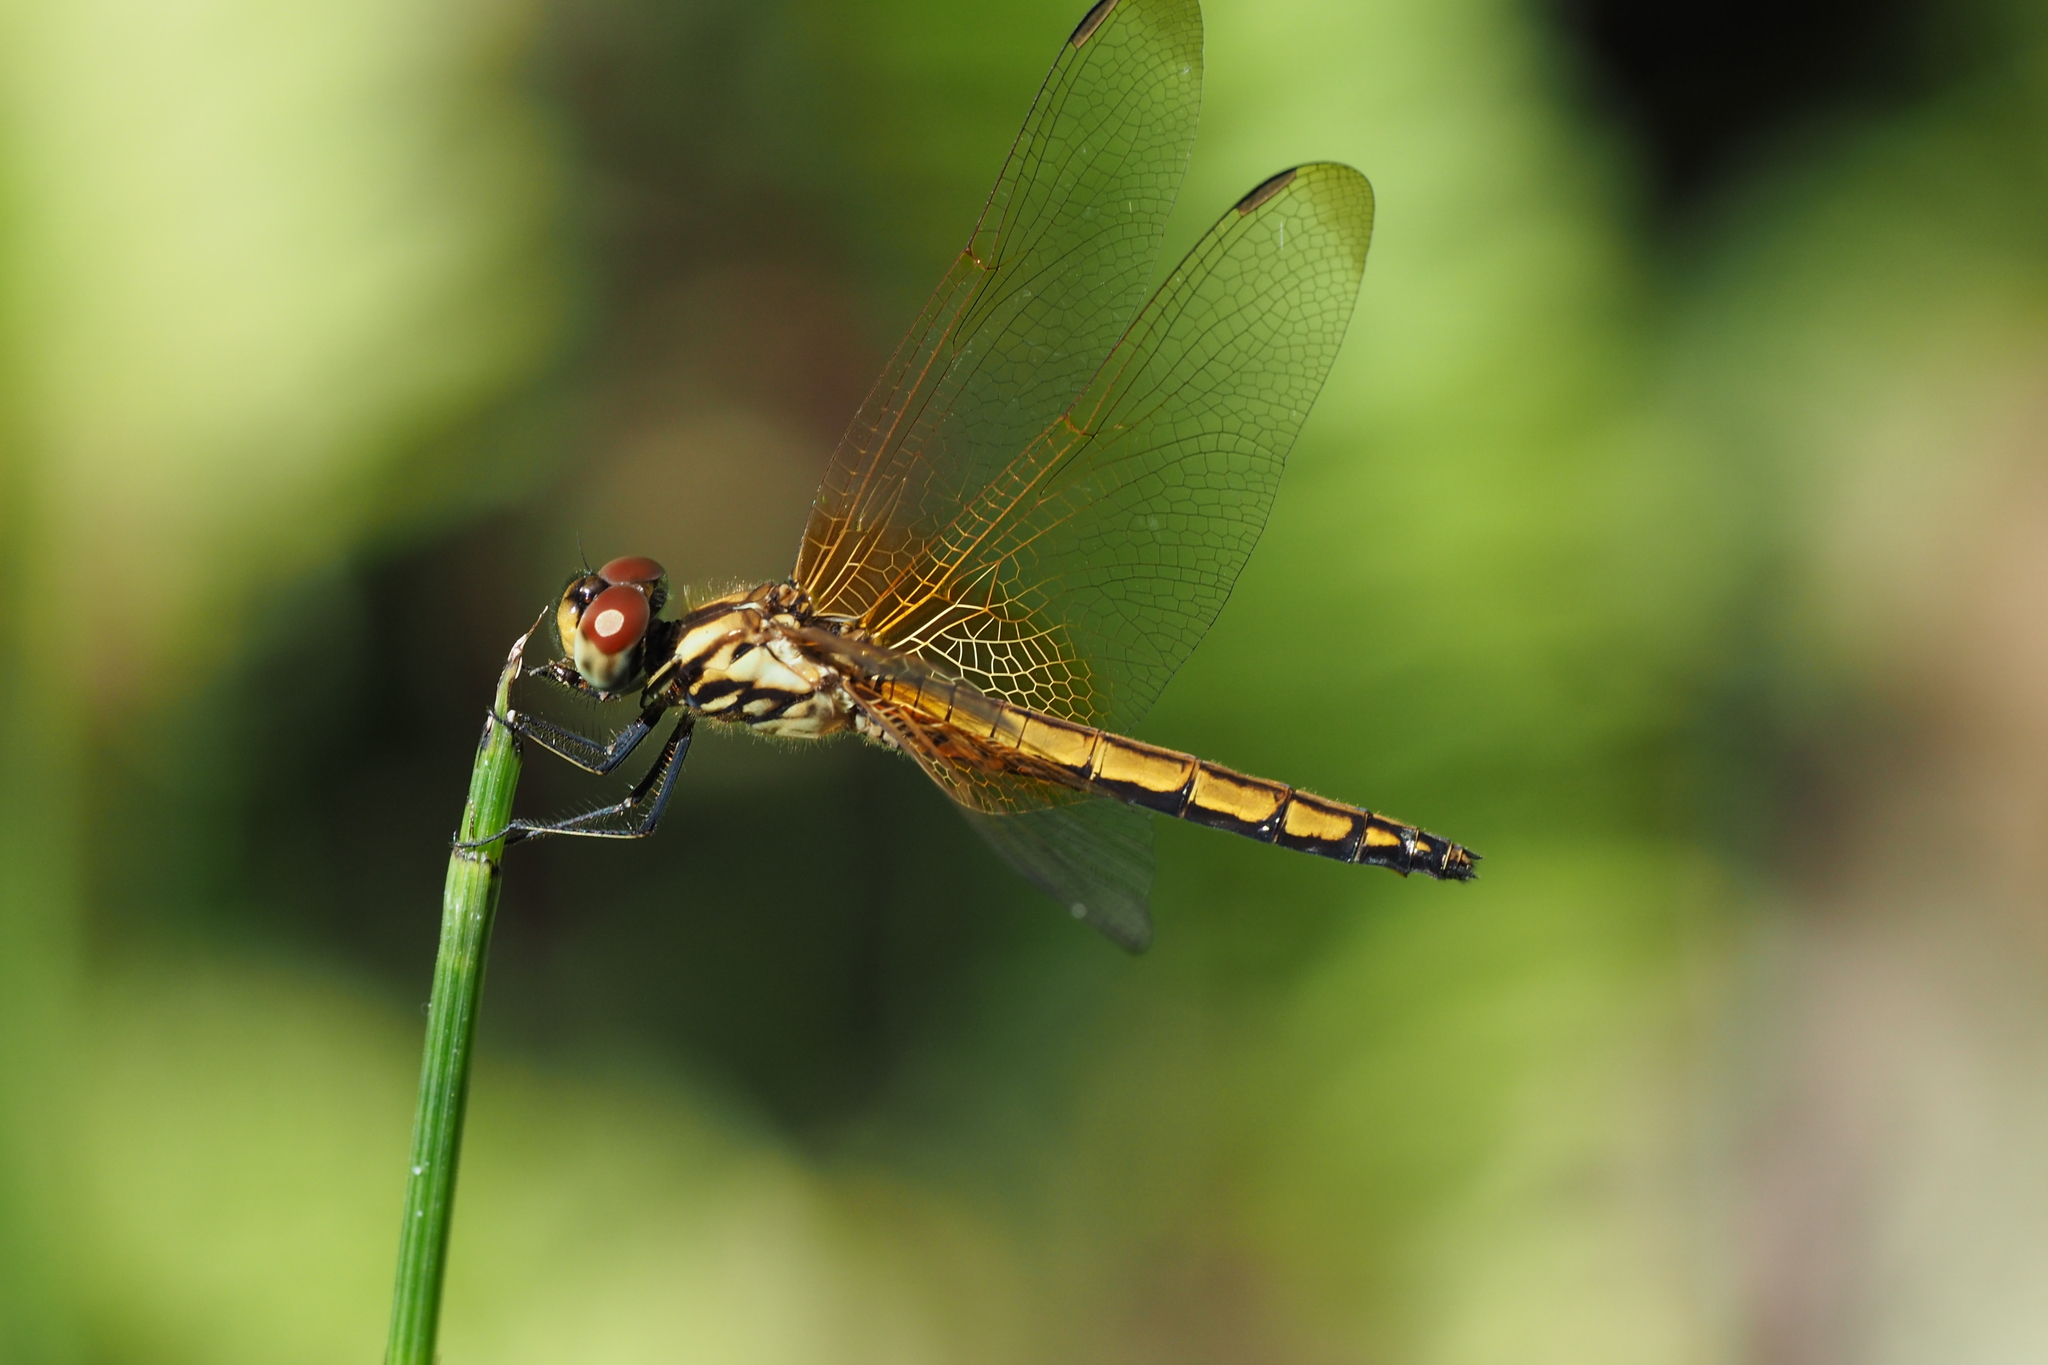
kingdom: Animalia
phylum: Arthropoda
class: Insecta
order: Odonata
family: Libellulidae
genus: Trithemis
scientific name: Trithemis aurora
